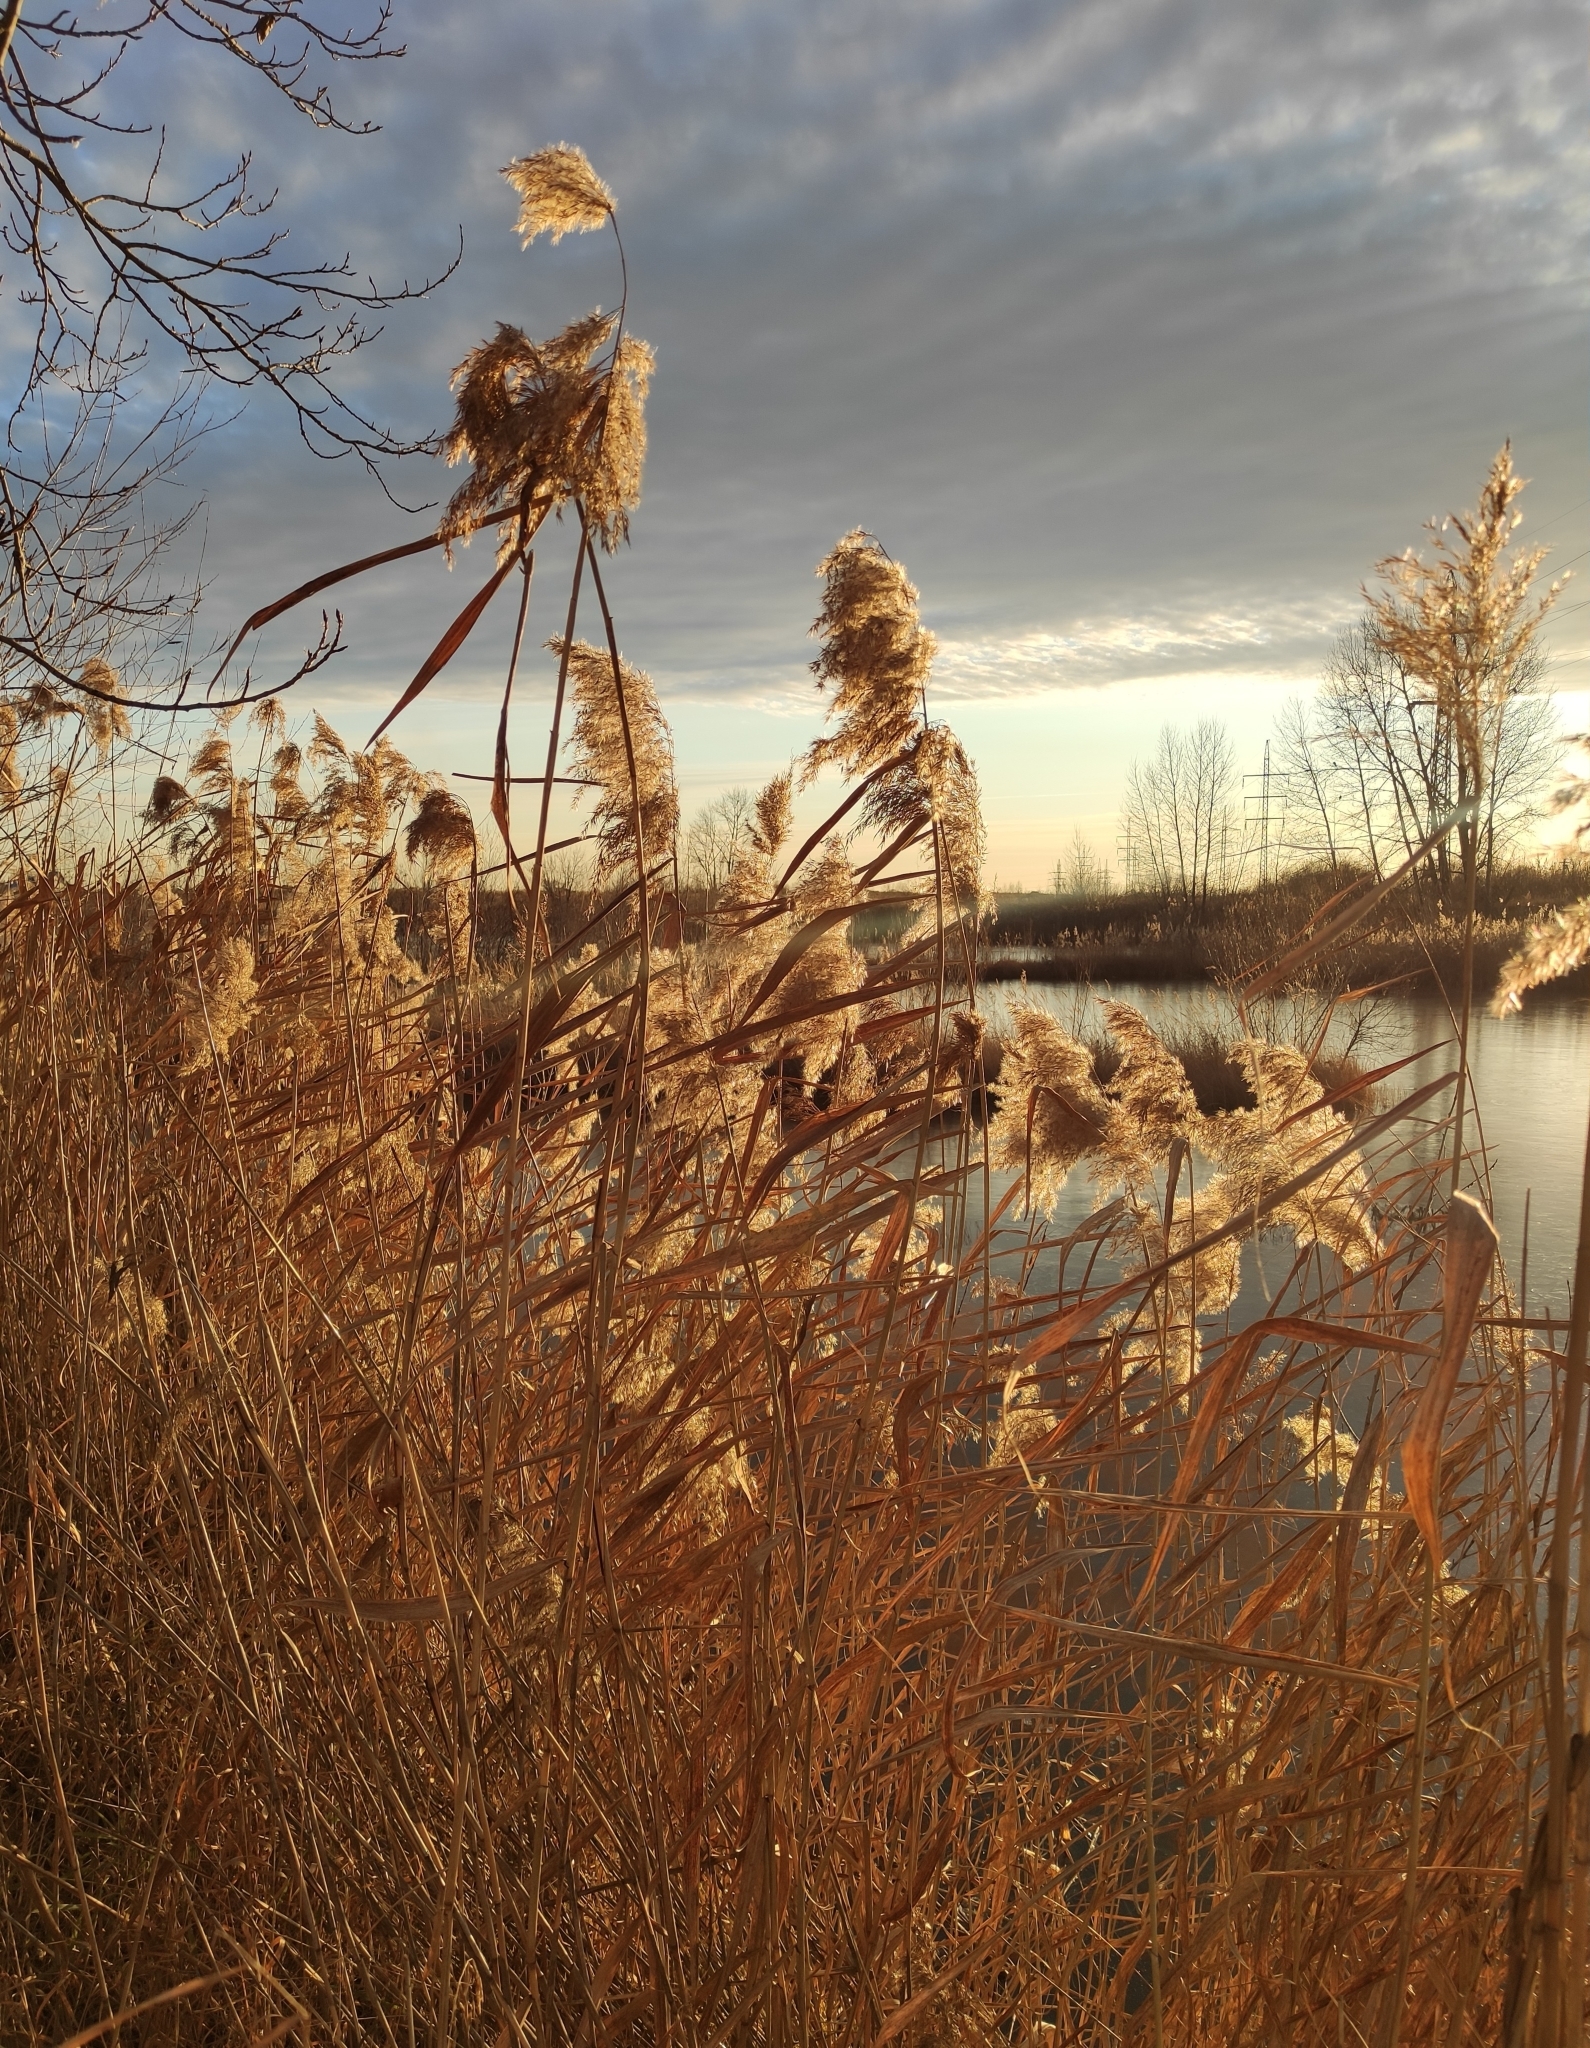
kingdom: Plantae
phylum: Tracheophyta
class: Liliopsida
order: Poales
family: Poaceae
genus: Phragmites
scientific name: Phragmites australis
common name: Common reed
